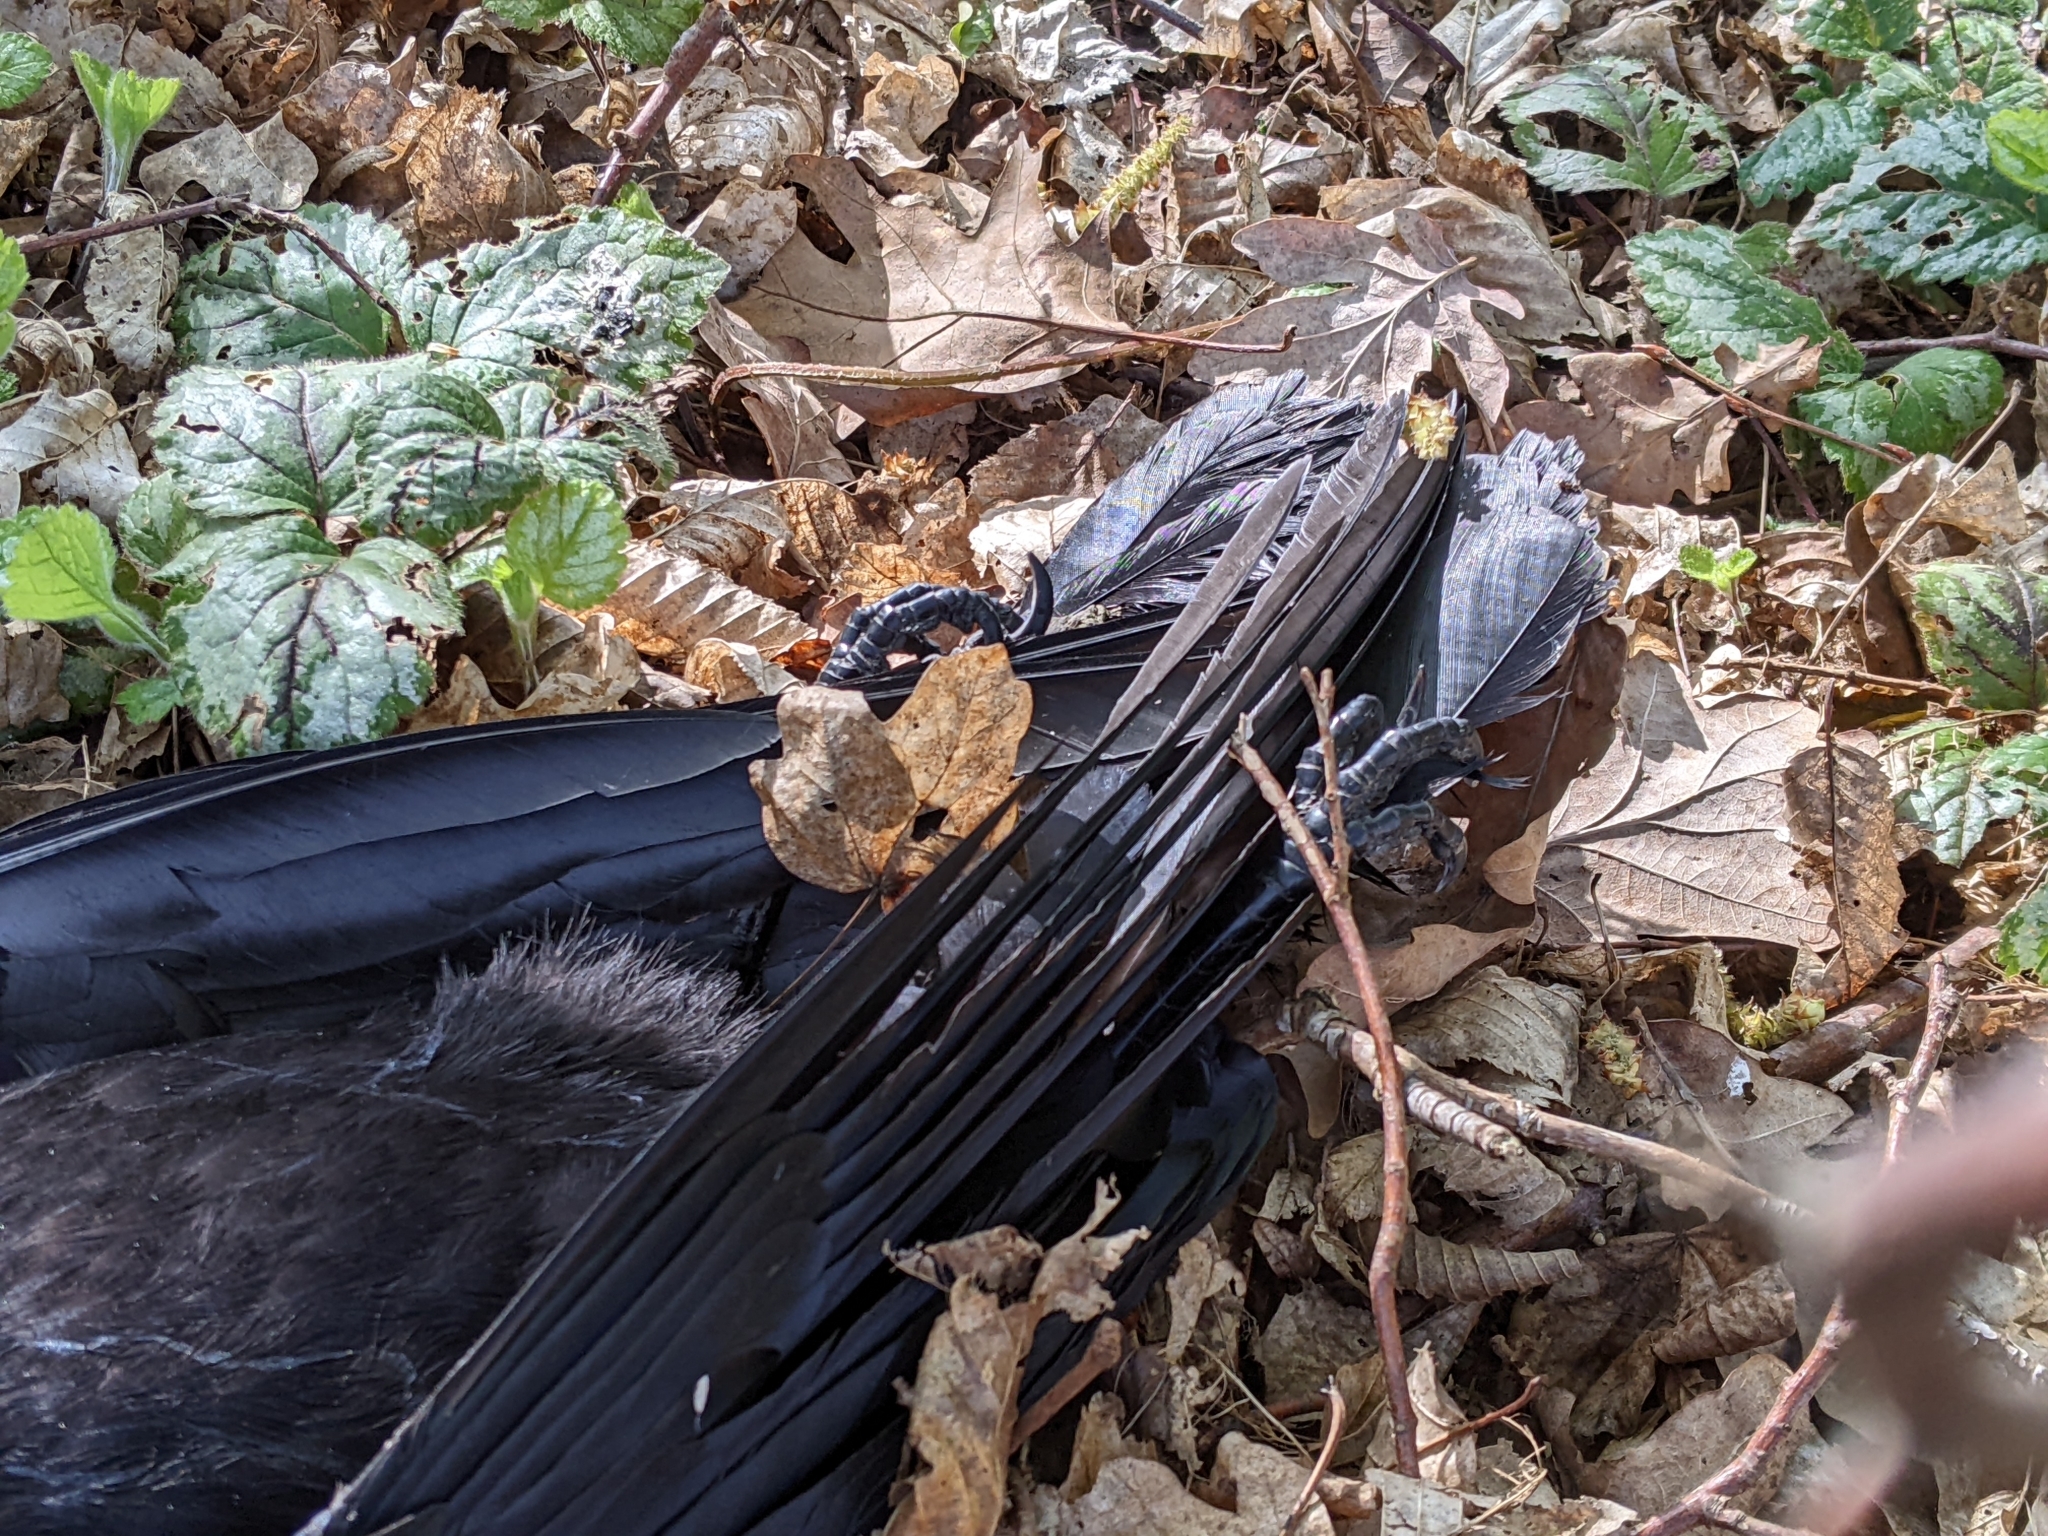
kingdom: Animalia
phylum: Chordata
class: Aves
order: Passeriformes
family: Corvidae
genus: Corvus
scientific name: Corvus corone
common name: Carrion crow
